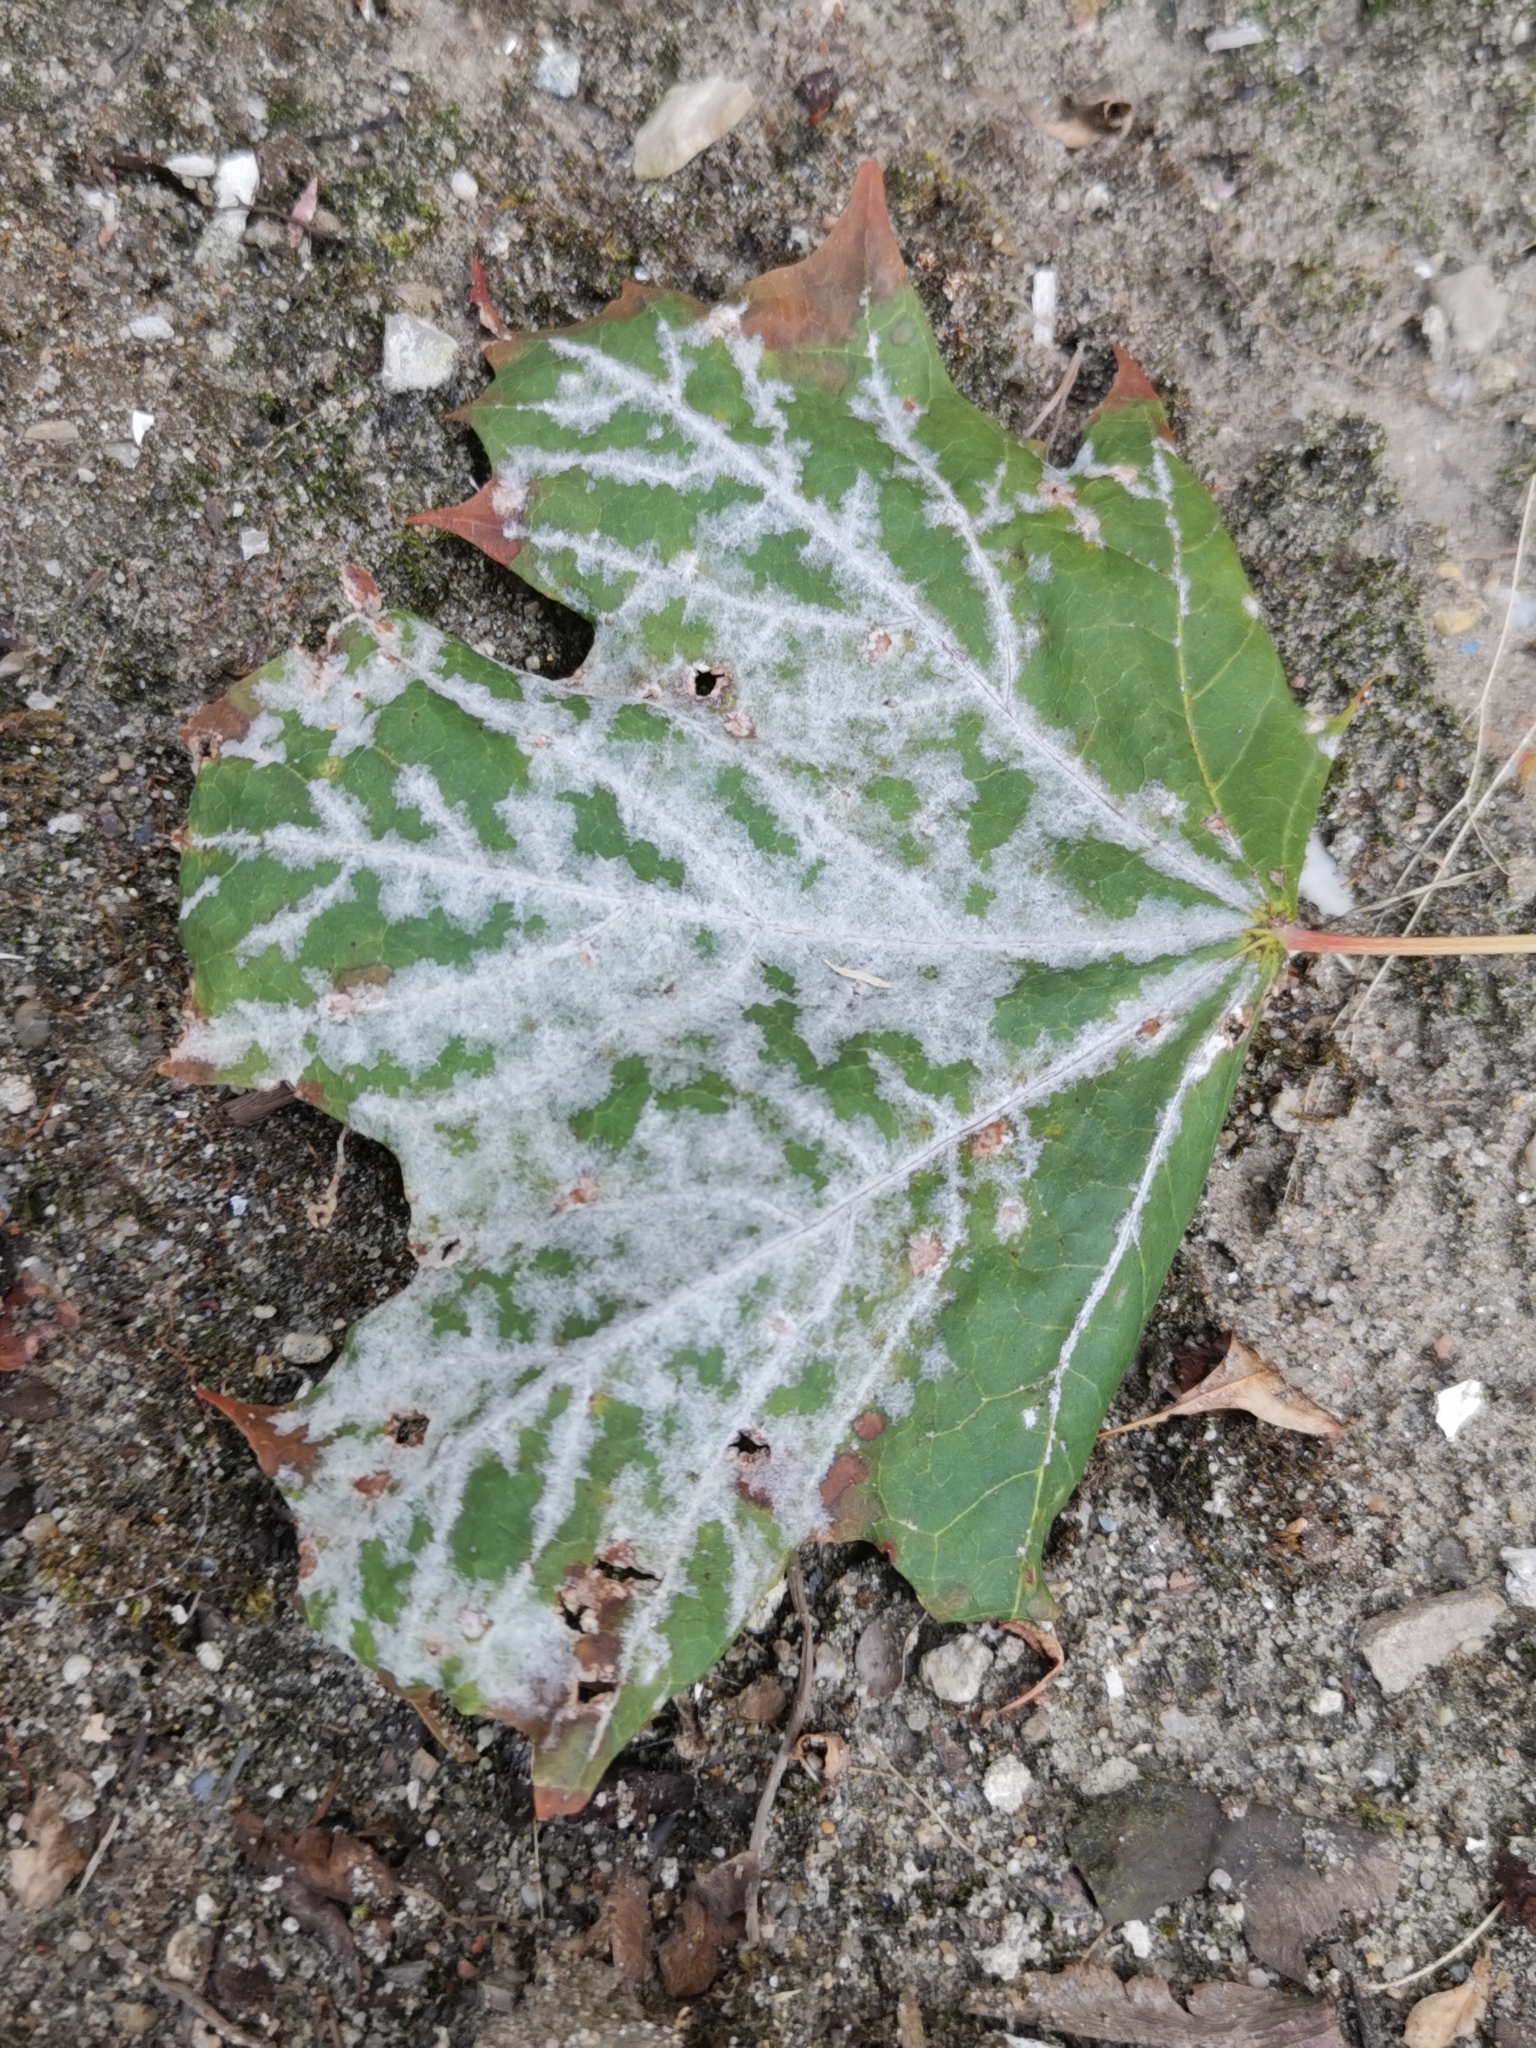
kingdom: Fungi
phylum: Ascomycota
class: Leotiomycetes
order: Helotiales
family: Erysiphaceae
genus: Sawadaea
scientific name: Sawadaea tulasnei
